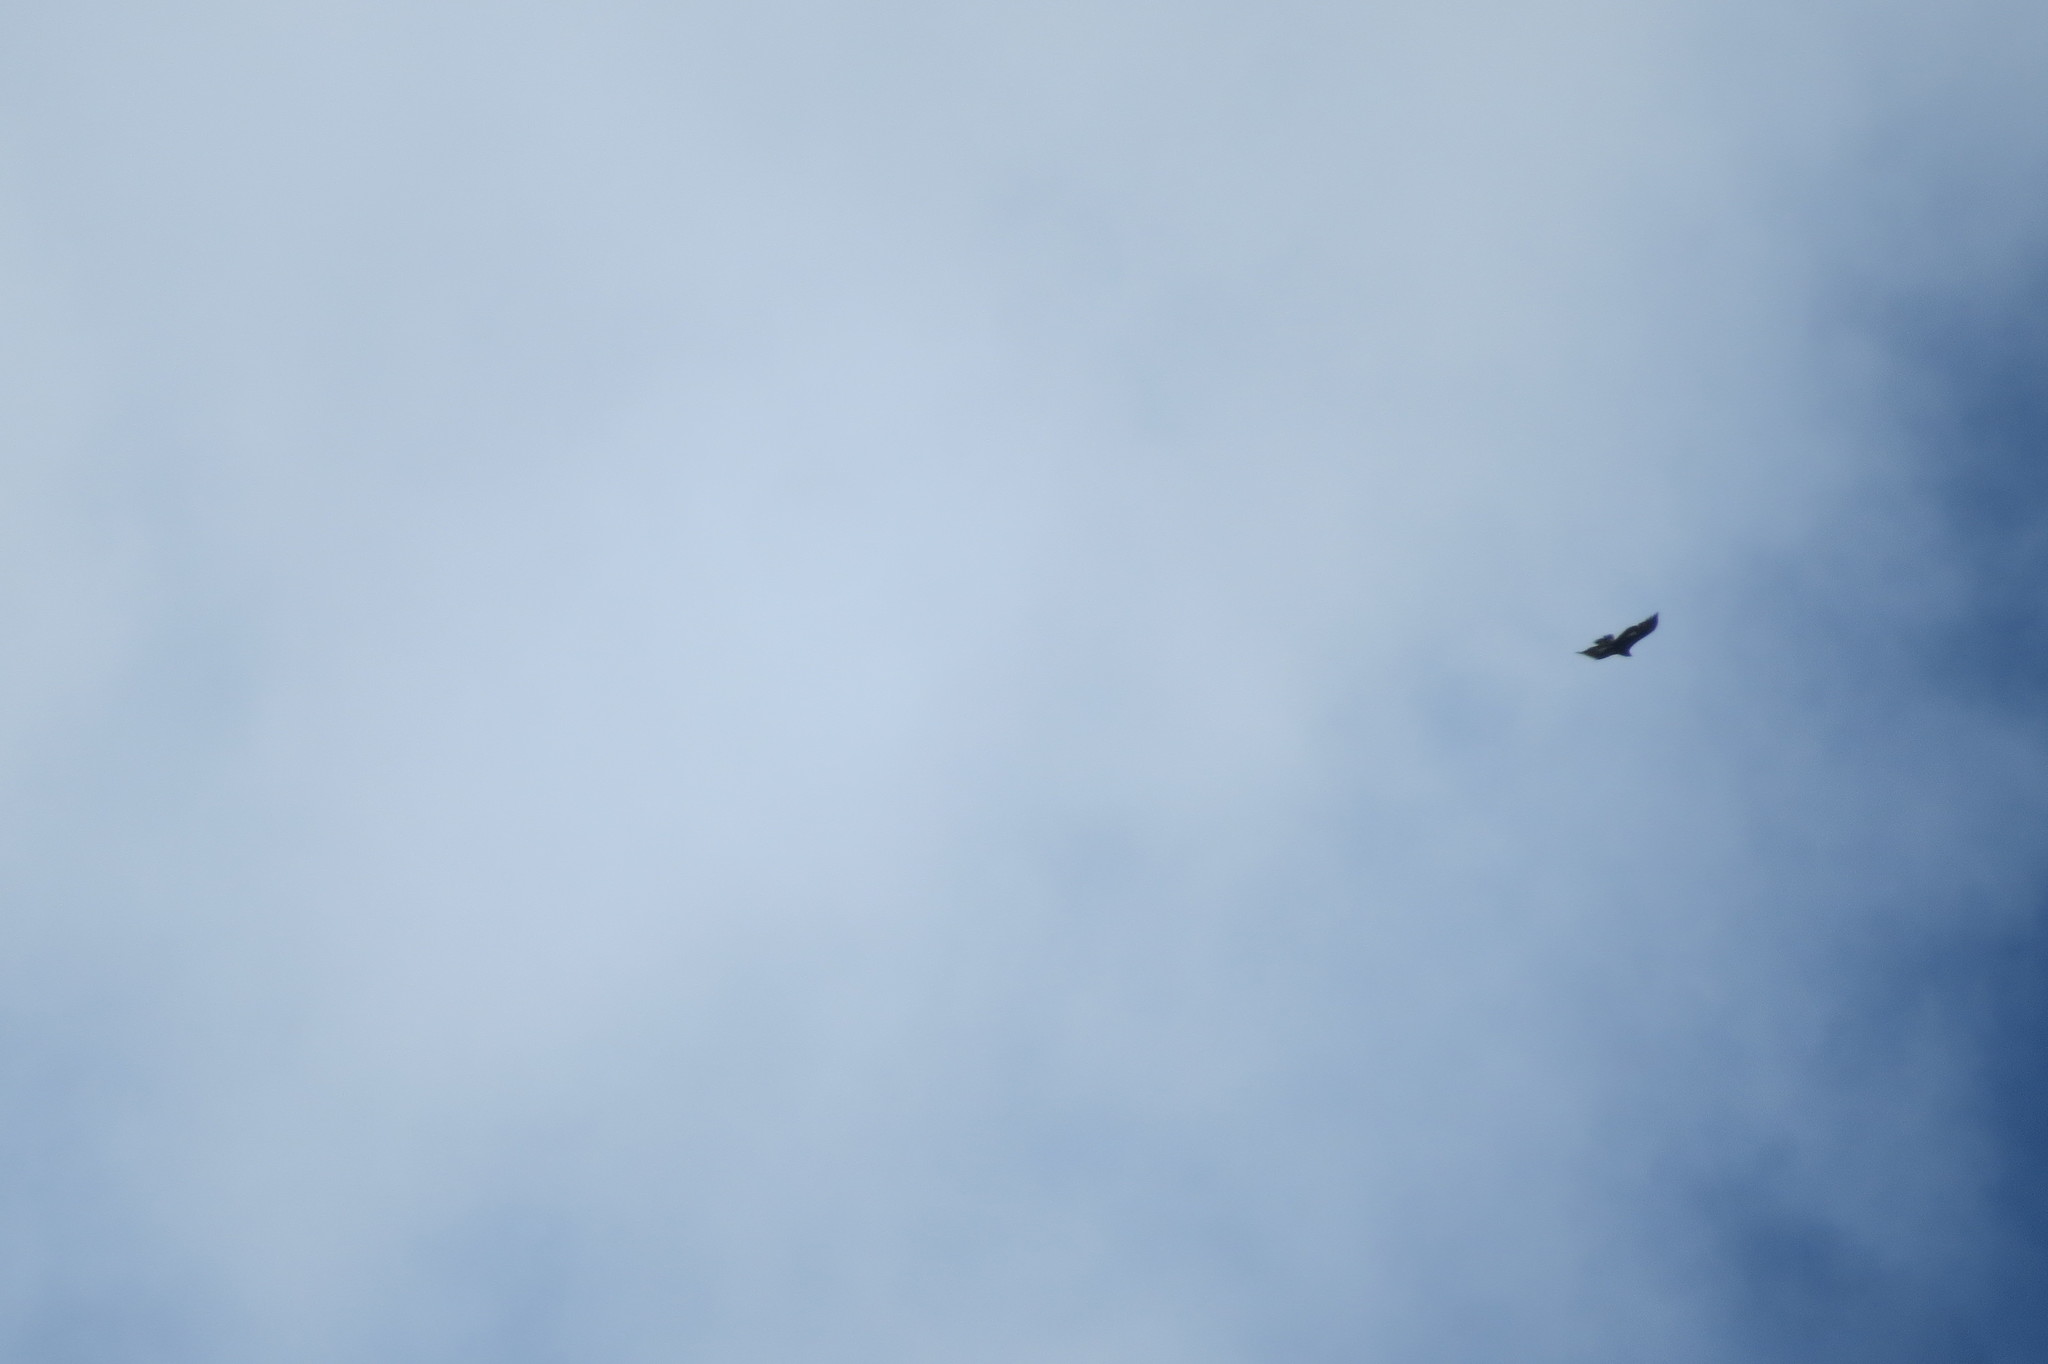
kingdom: Animalia
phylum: Chordata
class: Aves
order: Accipitriformes
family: Accipitridae
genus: Aquila
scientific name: Aquila chrysaetos
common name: Golden eagle
